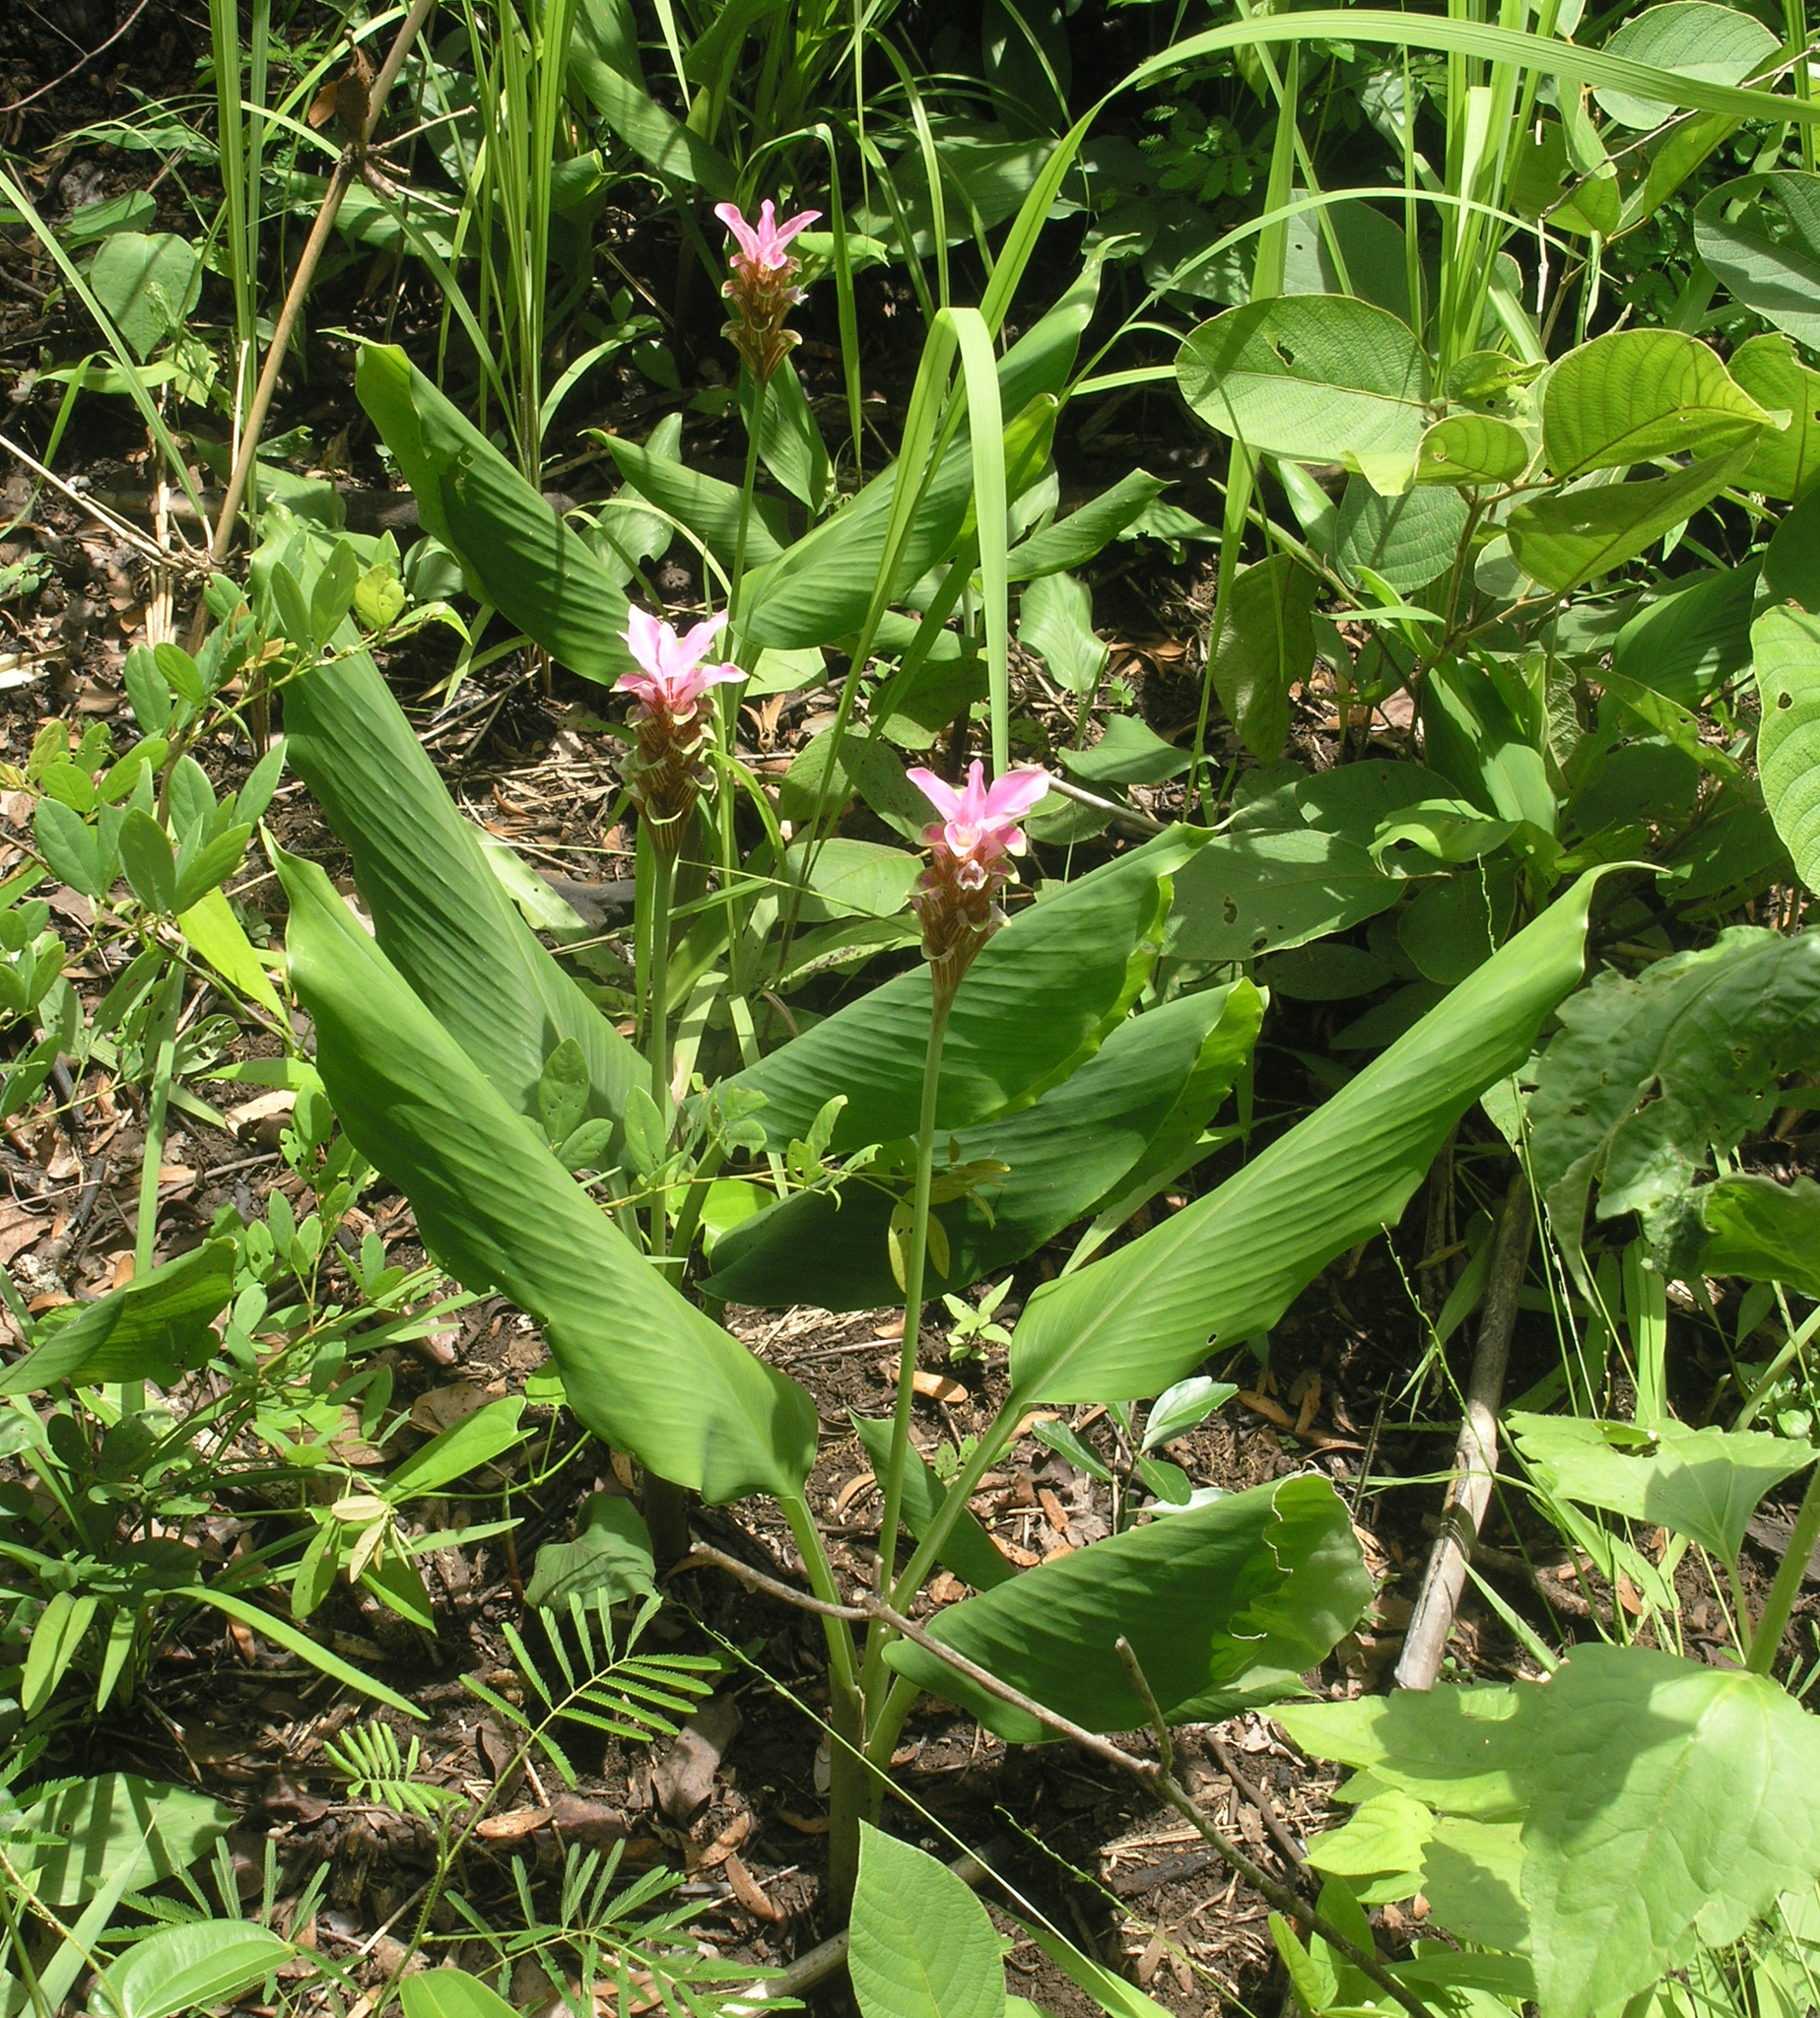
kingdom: Plantae
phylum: Tracheophyta
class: Liliopsida
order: Zingiberales
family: Zingiberaceae
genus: Curcuma
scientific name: Curcuma rhabdota
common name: Candy cane
